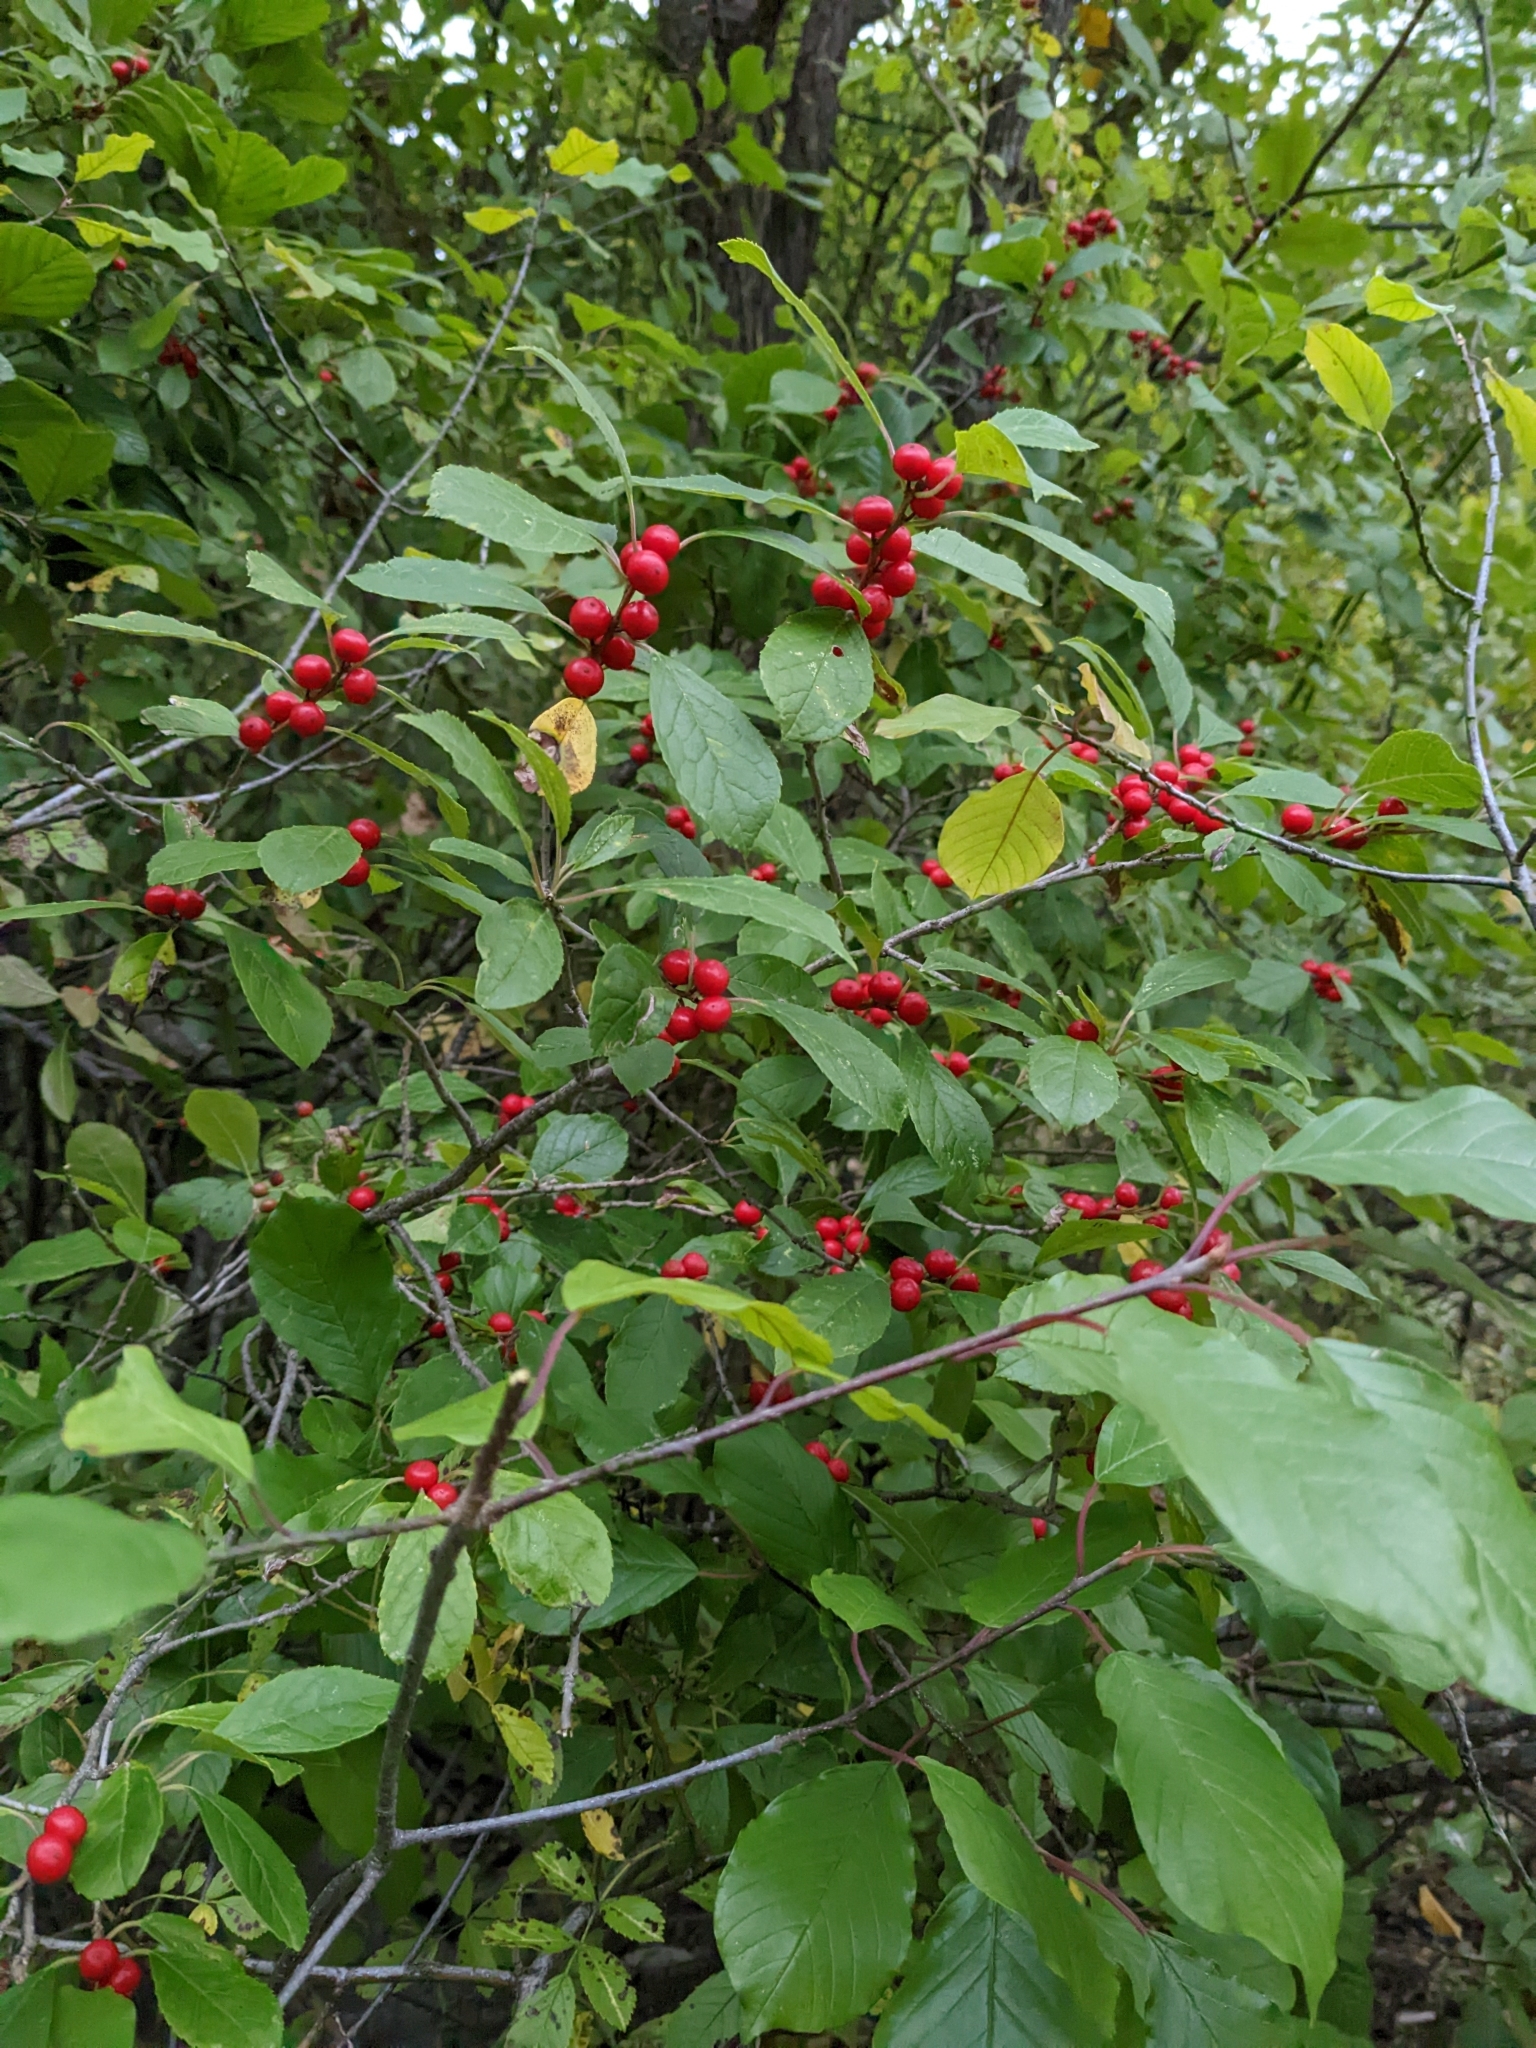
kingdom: Plantae
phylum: Tracheophyta
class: Magnoliopsida
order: Aquifoliales
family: Aquifoliaceae
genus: Ilex
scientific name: Ilex verticillata
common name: Virginia winterberry
